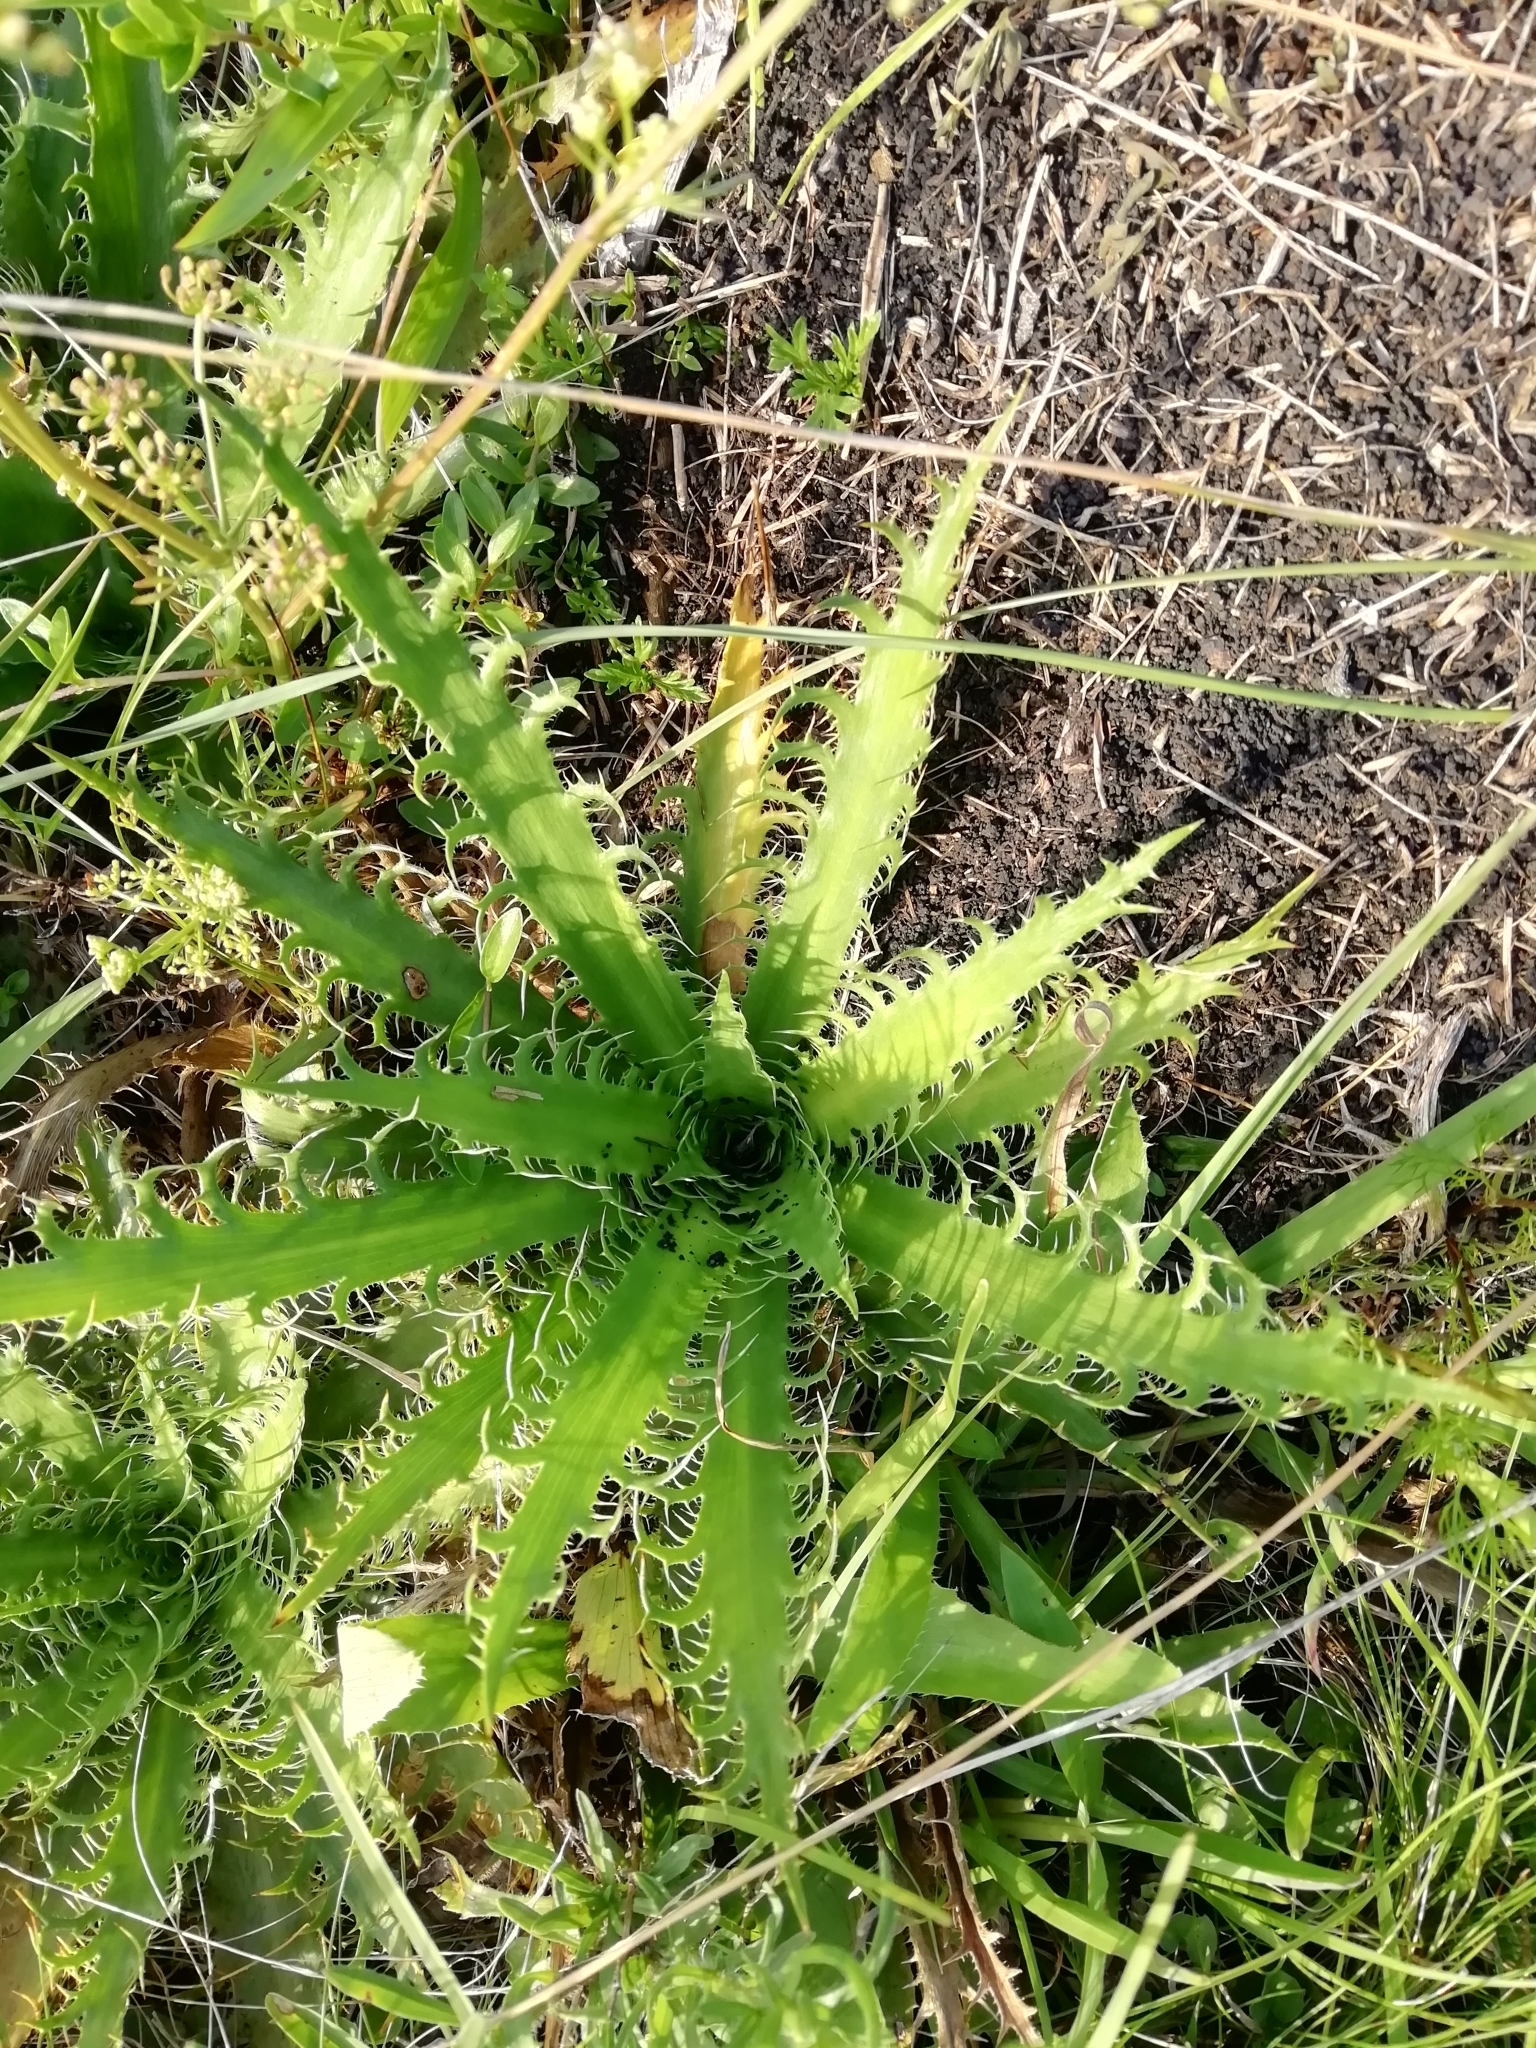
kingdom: Plantae
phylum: Tracheophyta
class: Magnoliopsida
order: Apiales
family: Apiaceae
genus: Eryngium
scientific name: Eryngium serra
